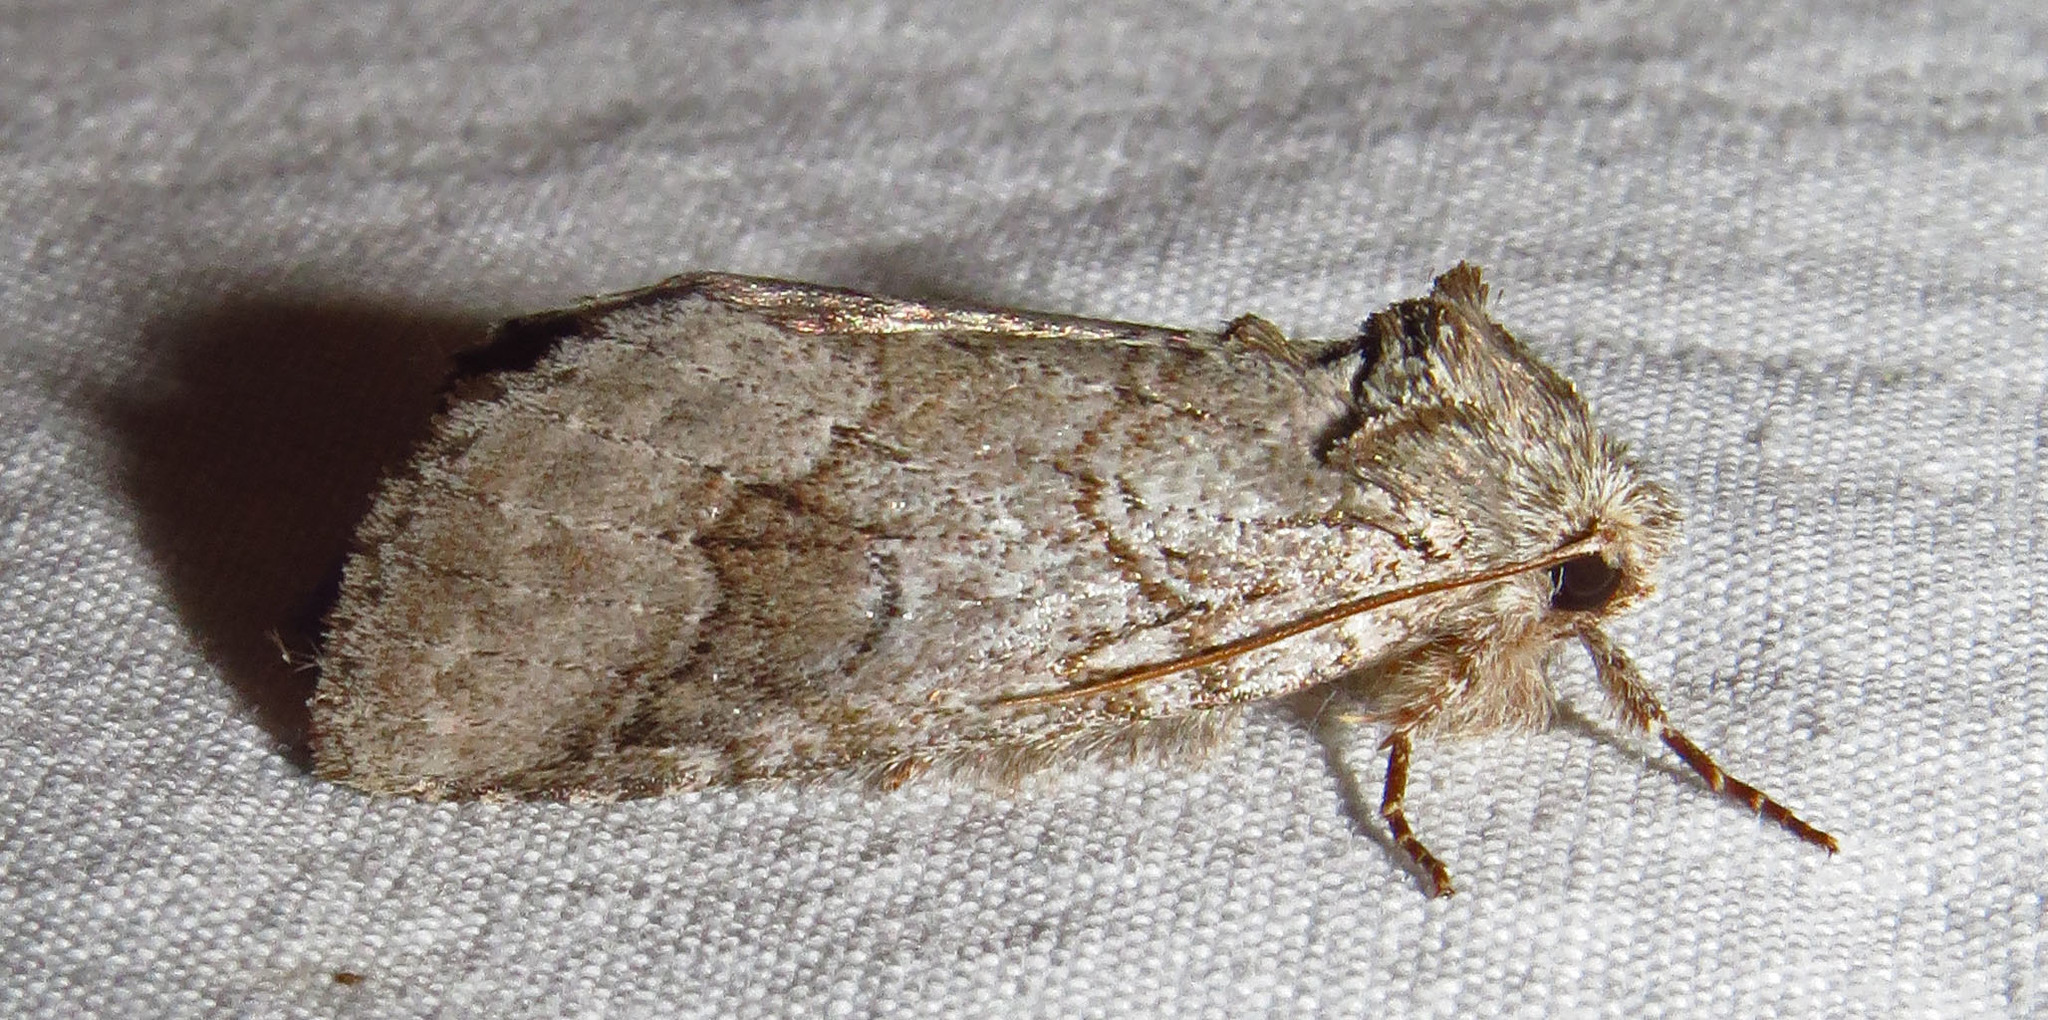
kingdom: Animalia
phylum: Arthropoda
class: Insecta
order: Lepidoptera
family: Notodontidae
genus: Lochmaeus
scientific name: Lochmaeus bilineata
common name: Double-lined prominent
